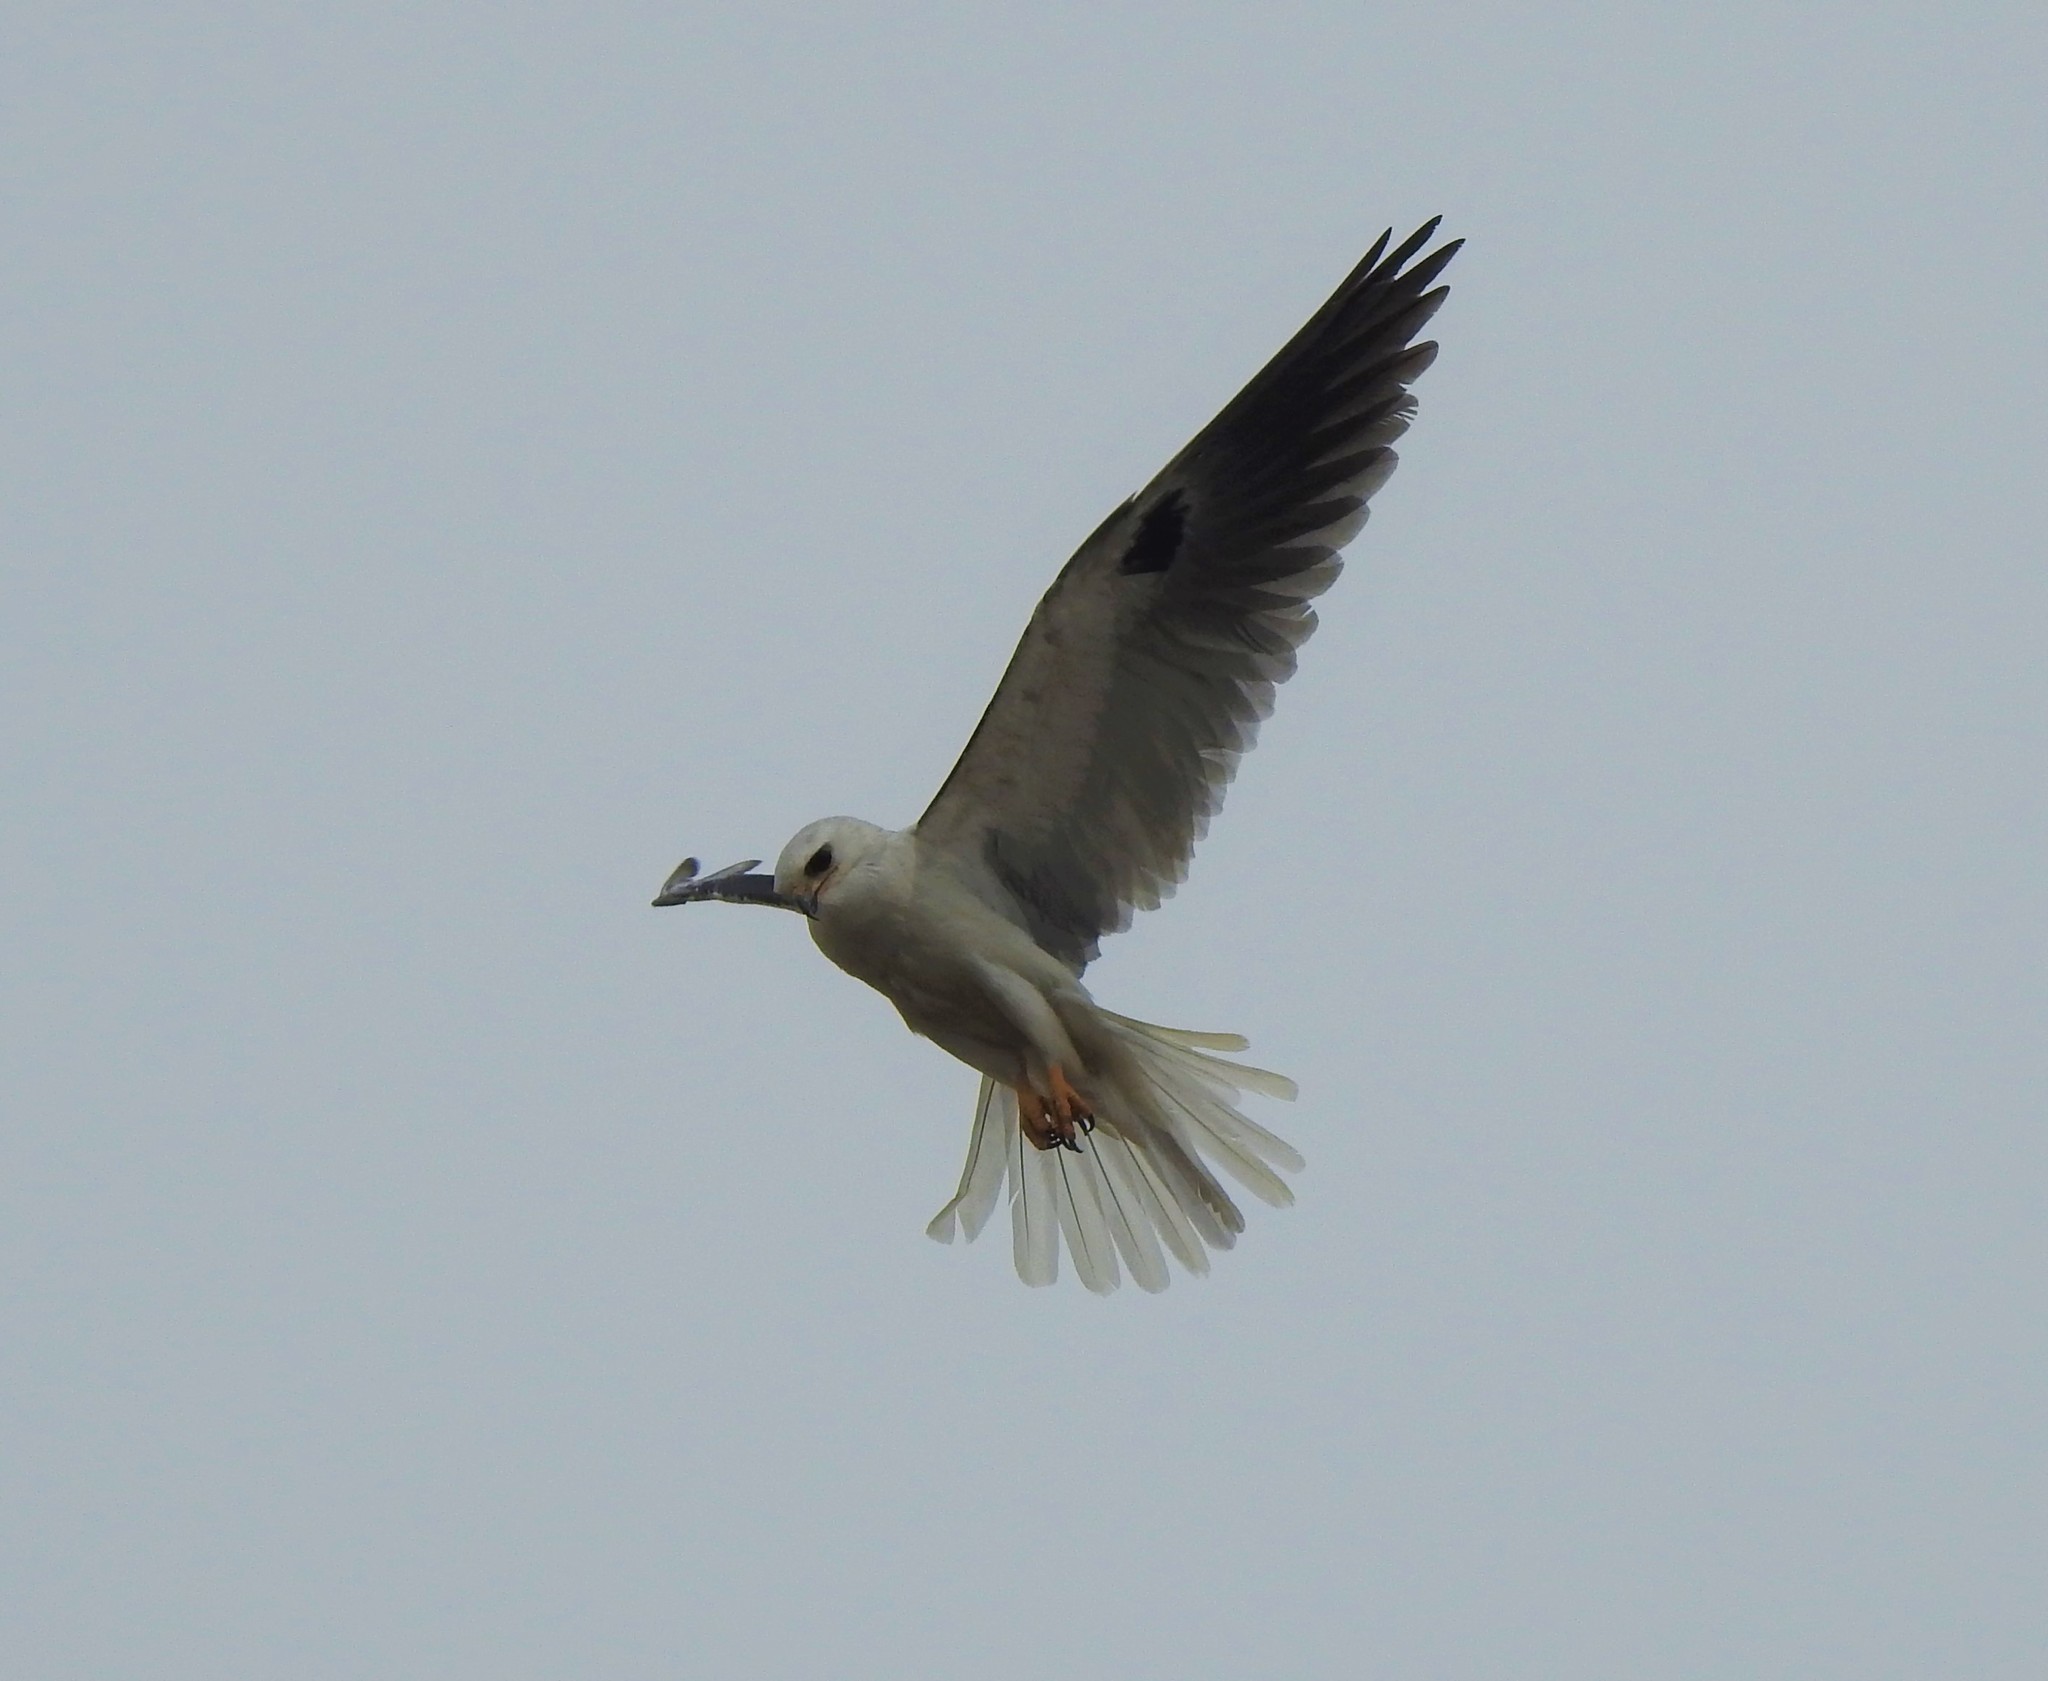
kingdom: Animalia
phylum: Chordata
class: Aves
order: Accipitriformes
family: Accipitridae
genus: Elanus
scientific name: Elanus leucurus
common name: White-tailed kite
